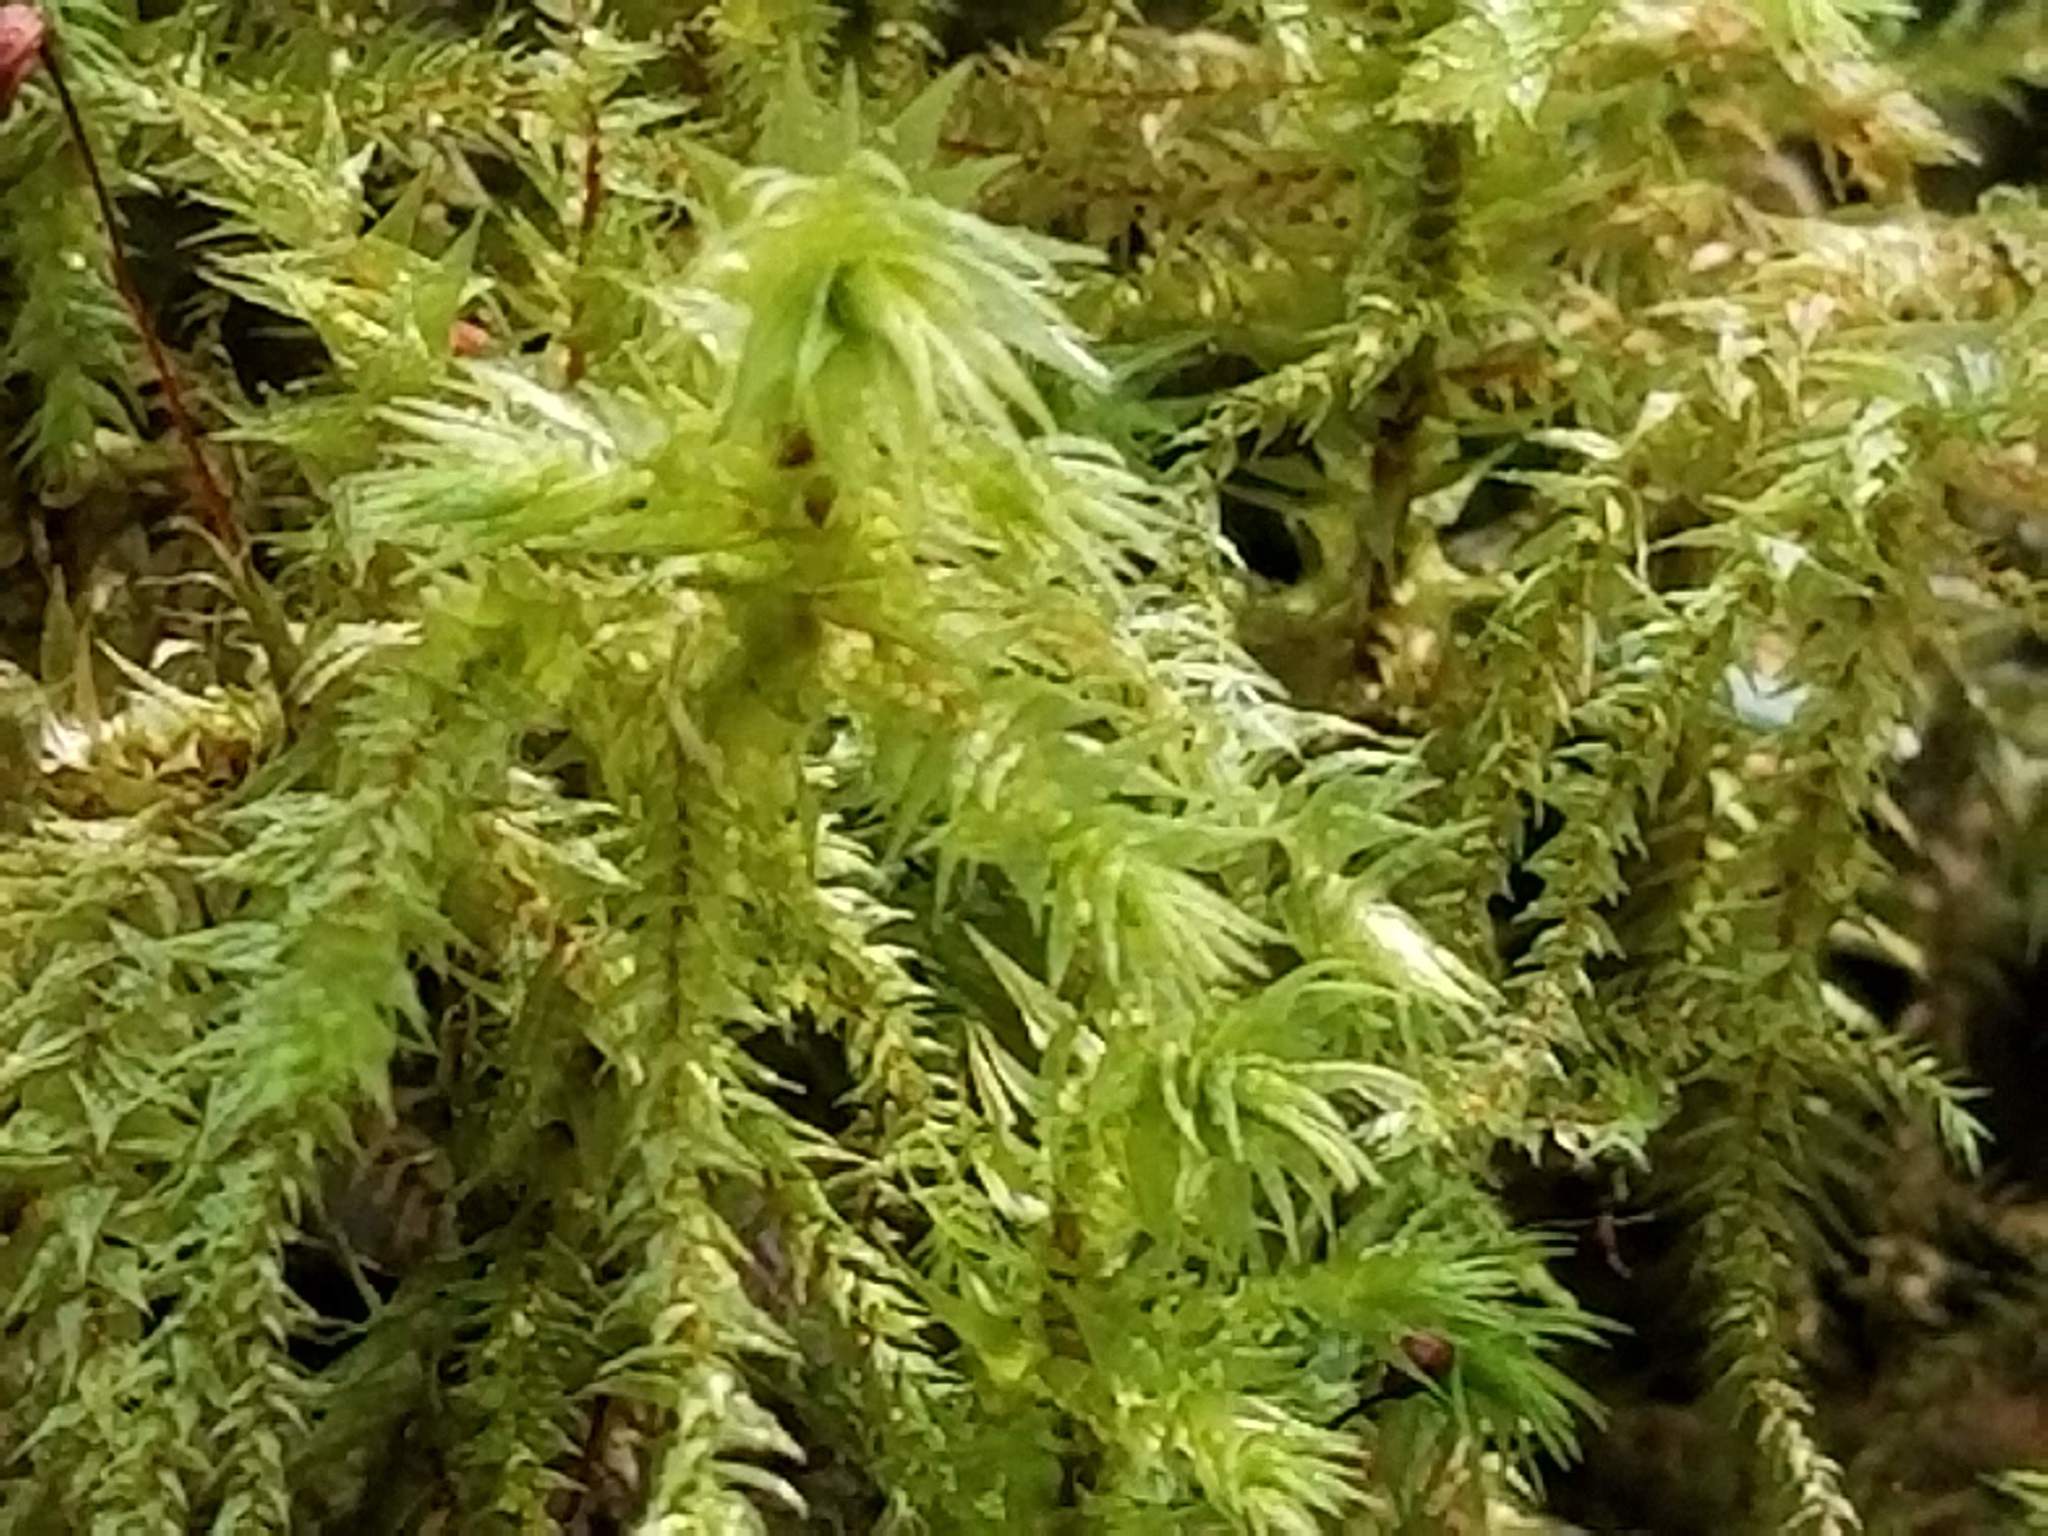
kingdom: Plantae
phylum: Bryophyta
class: Bryopsida
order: Hypnales
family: Hylocomiaceae
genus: Hylocomiadelphus
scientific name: Hylocomiadelphus triquetrus
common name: Rough goose neck moss
